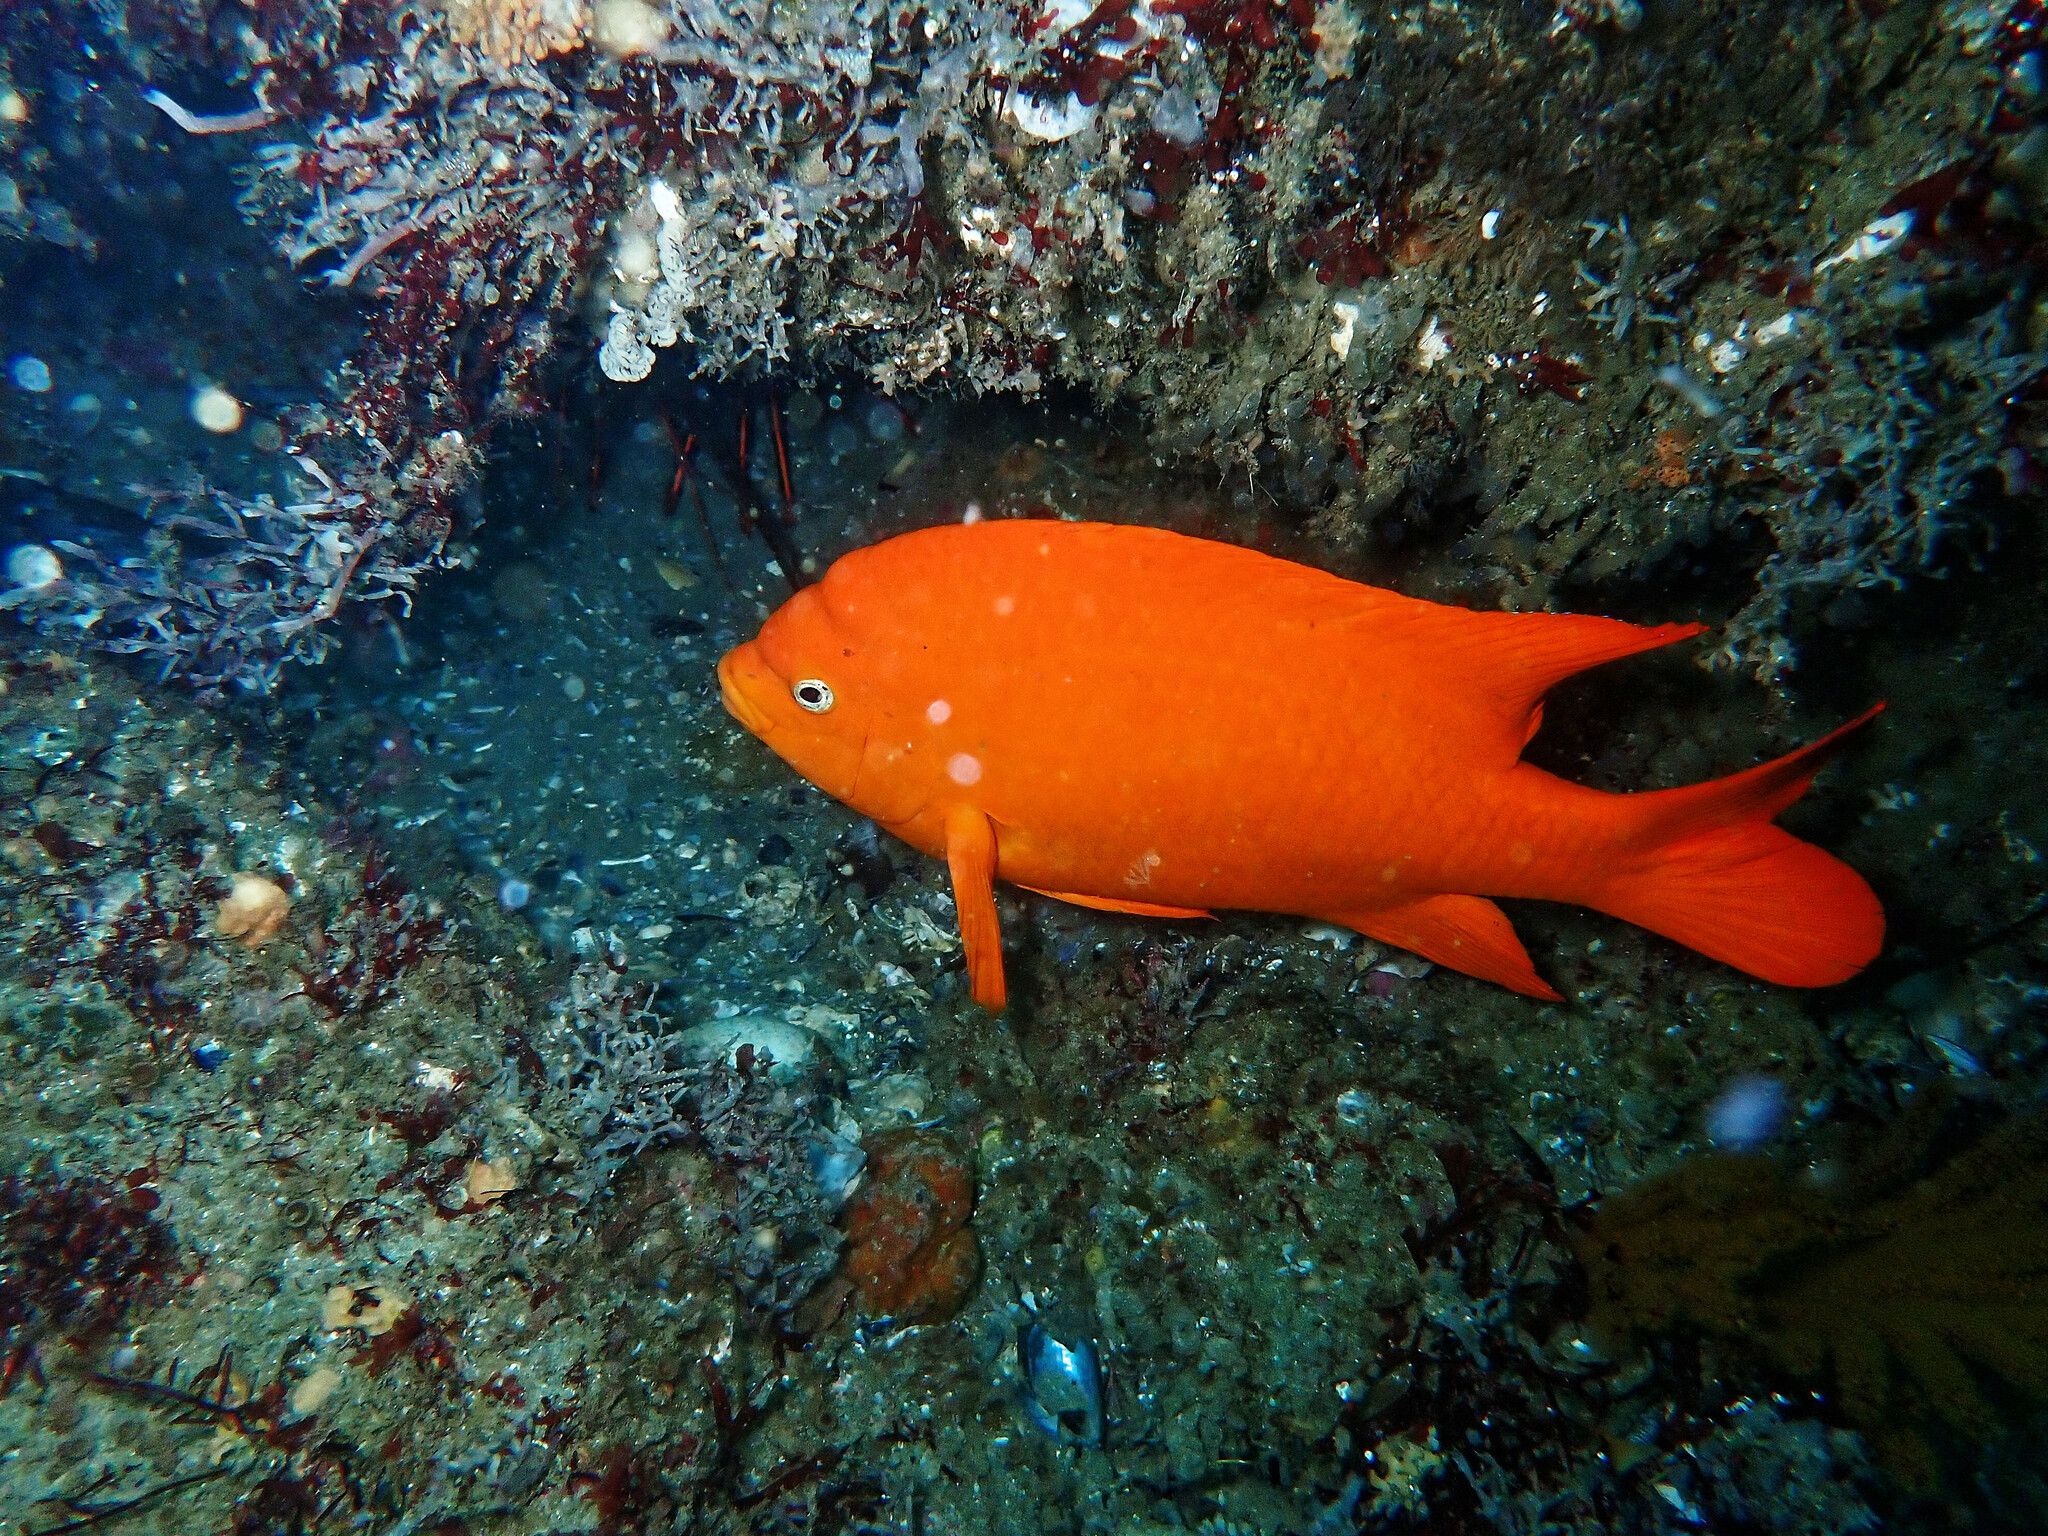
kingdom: Animalia
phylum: Chordata
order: Perciformes
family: Pomacentridae
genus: Hypsypops
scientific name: Hypsypops rubicundus
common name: Garibaldi
